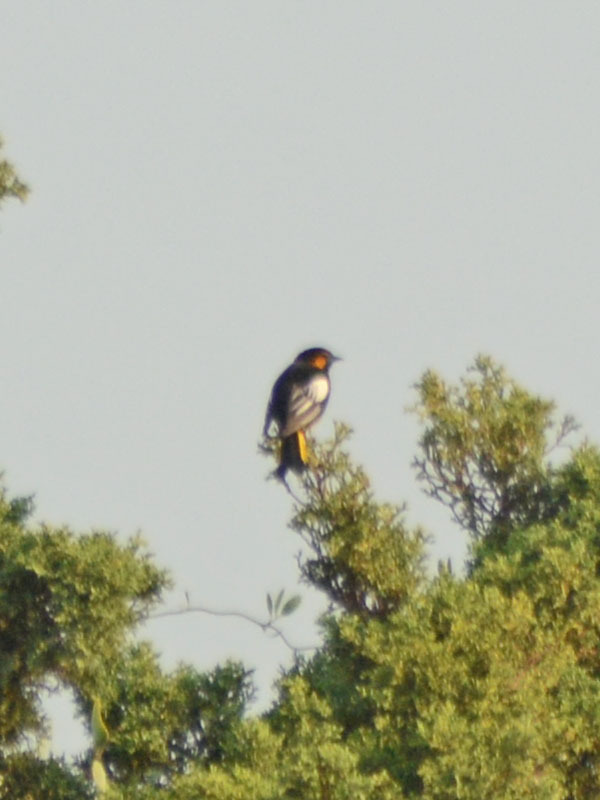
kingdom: Animalia
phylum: Chordata
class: Aves
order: Passeriformes
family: Icteridae
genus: Icterus
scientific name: Icterus abeillei
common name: Black-backed oriole
